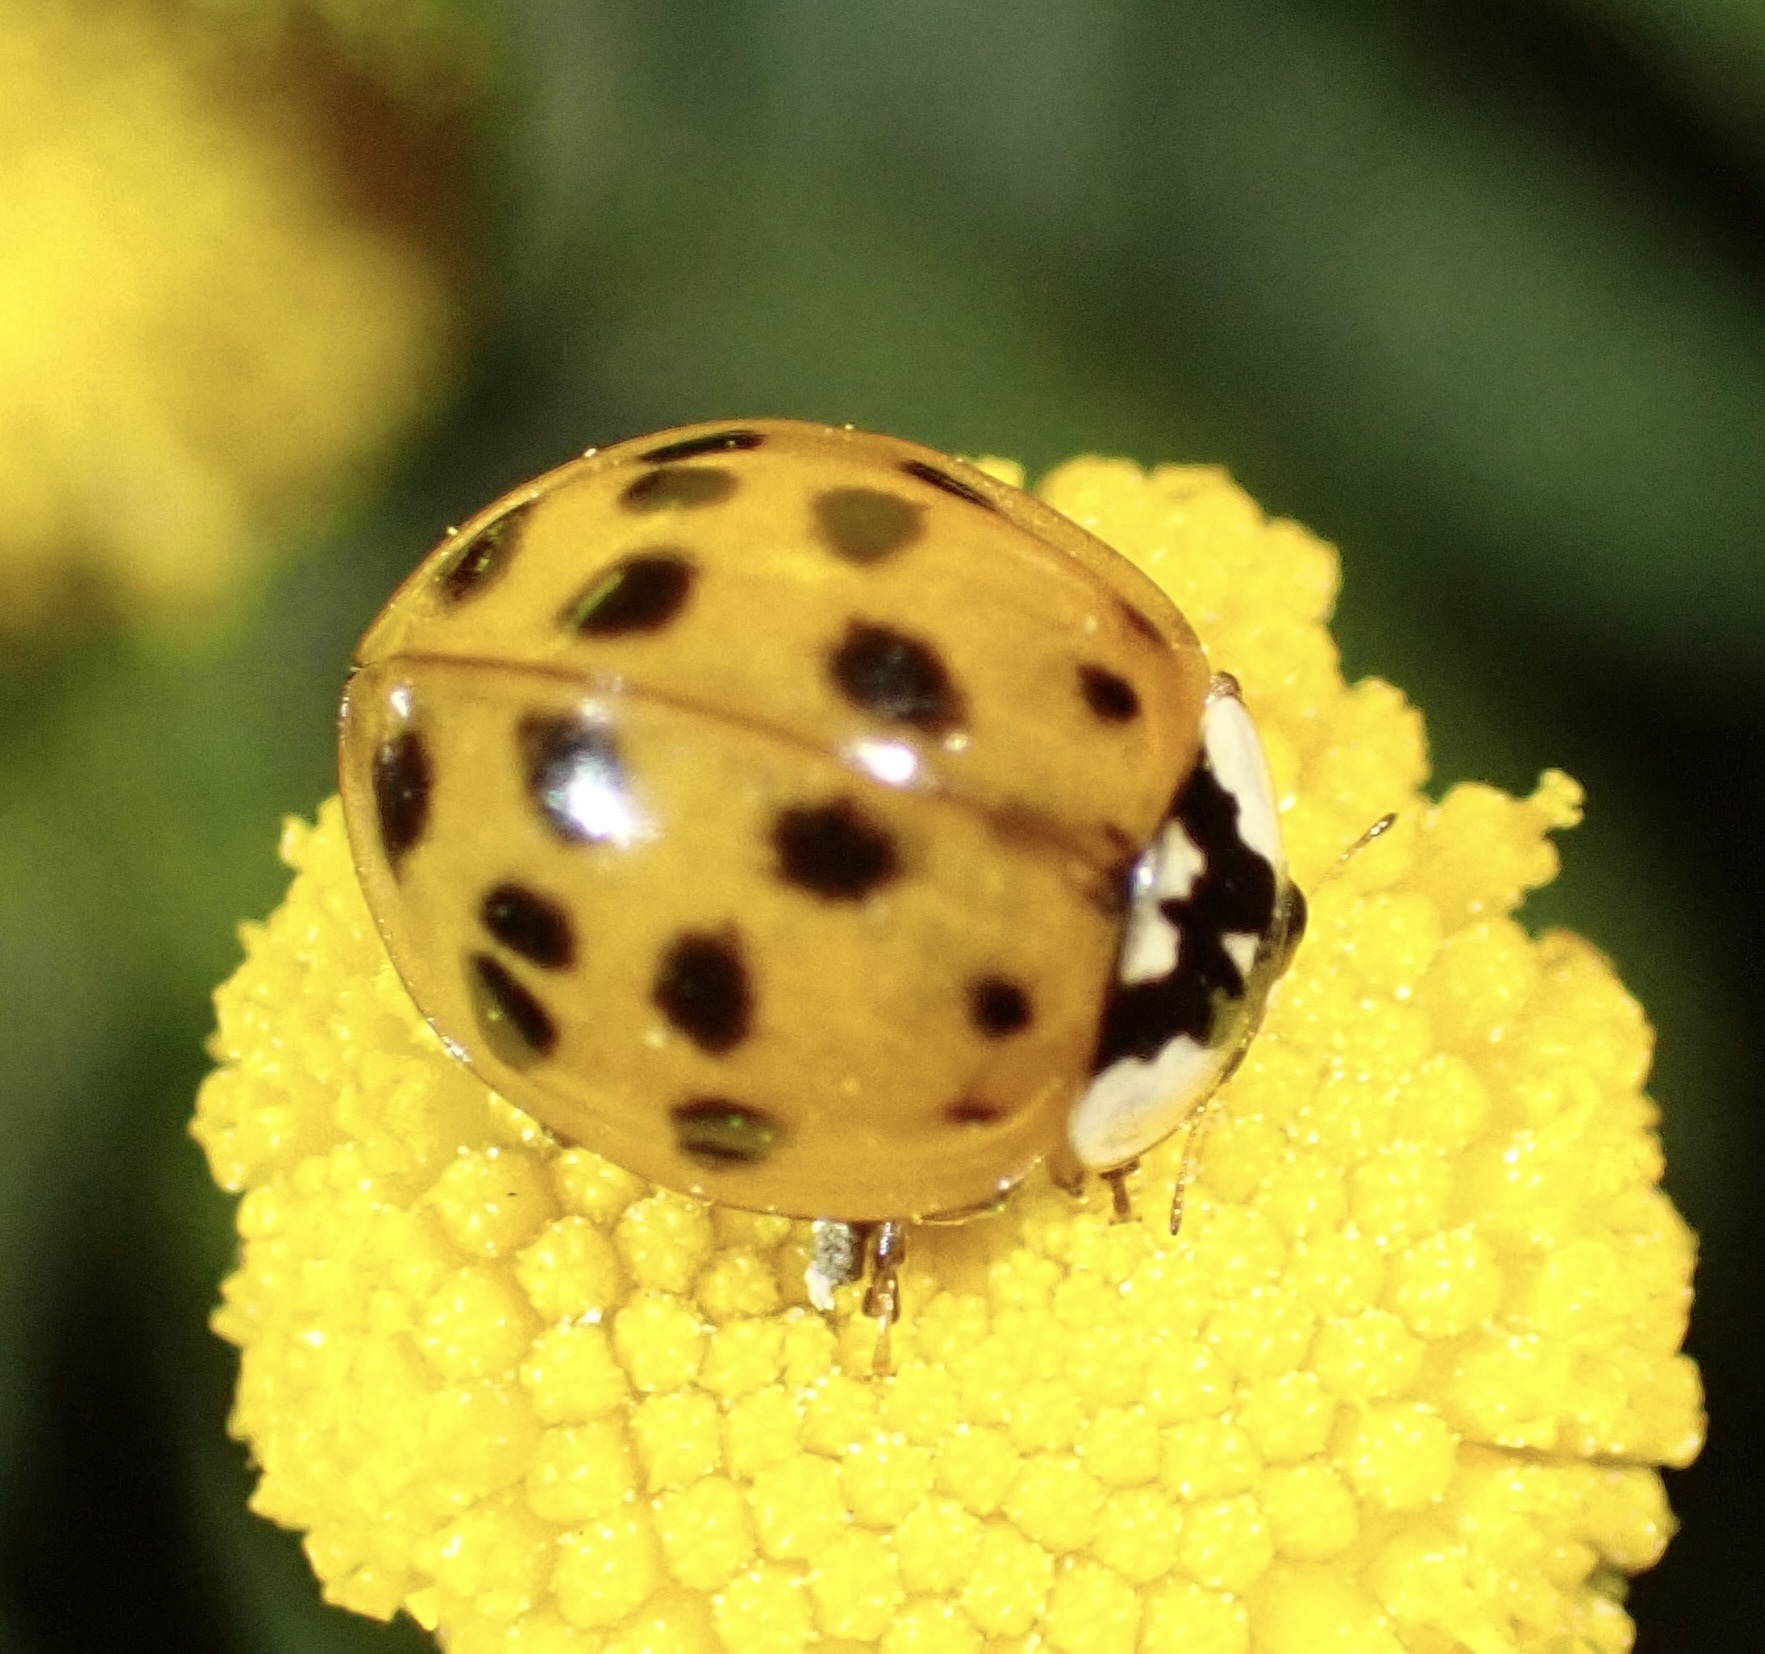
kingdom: Animalia
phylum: Arthropoda
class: Insecta
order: Coleoptera
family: Coccinellidae
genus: Harmonia
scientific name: Harmonia axyridis
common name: Harlequin ladybird
